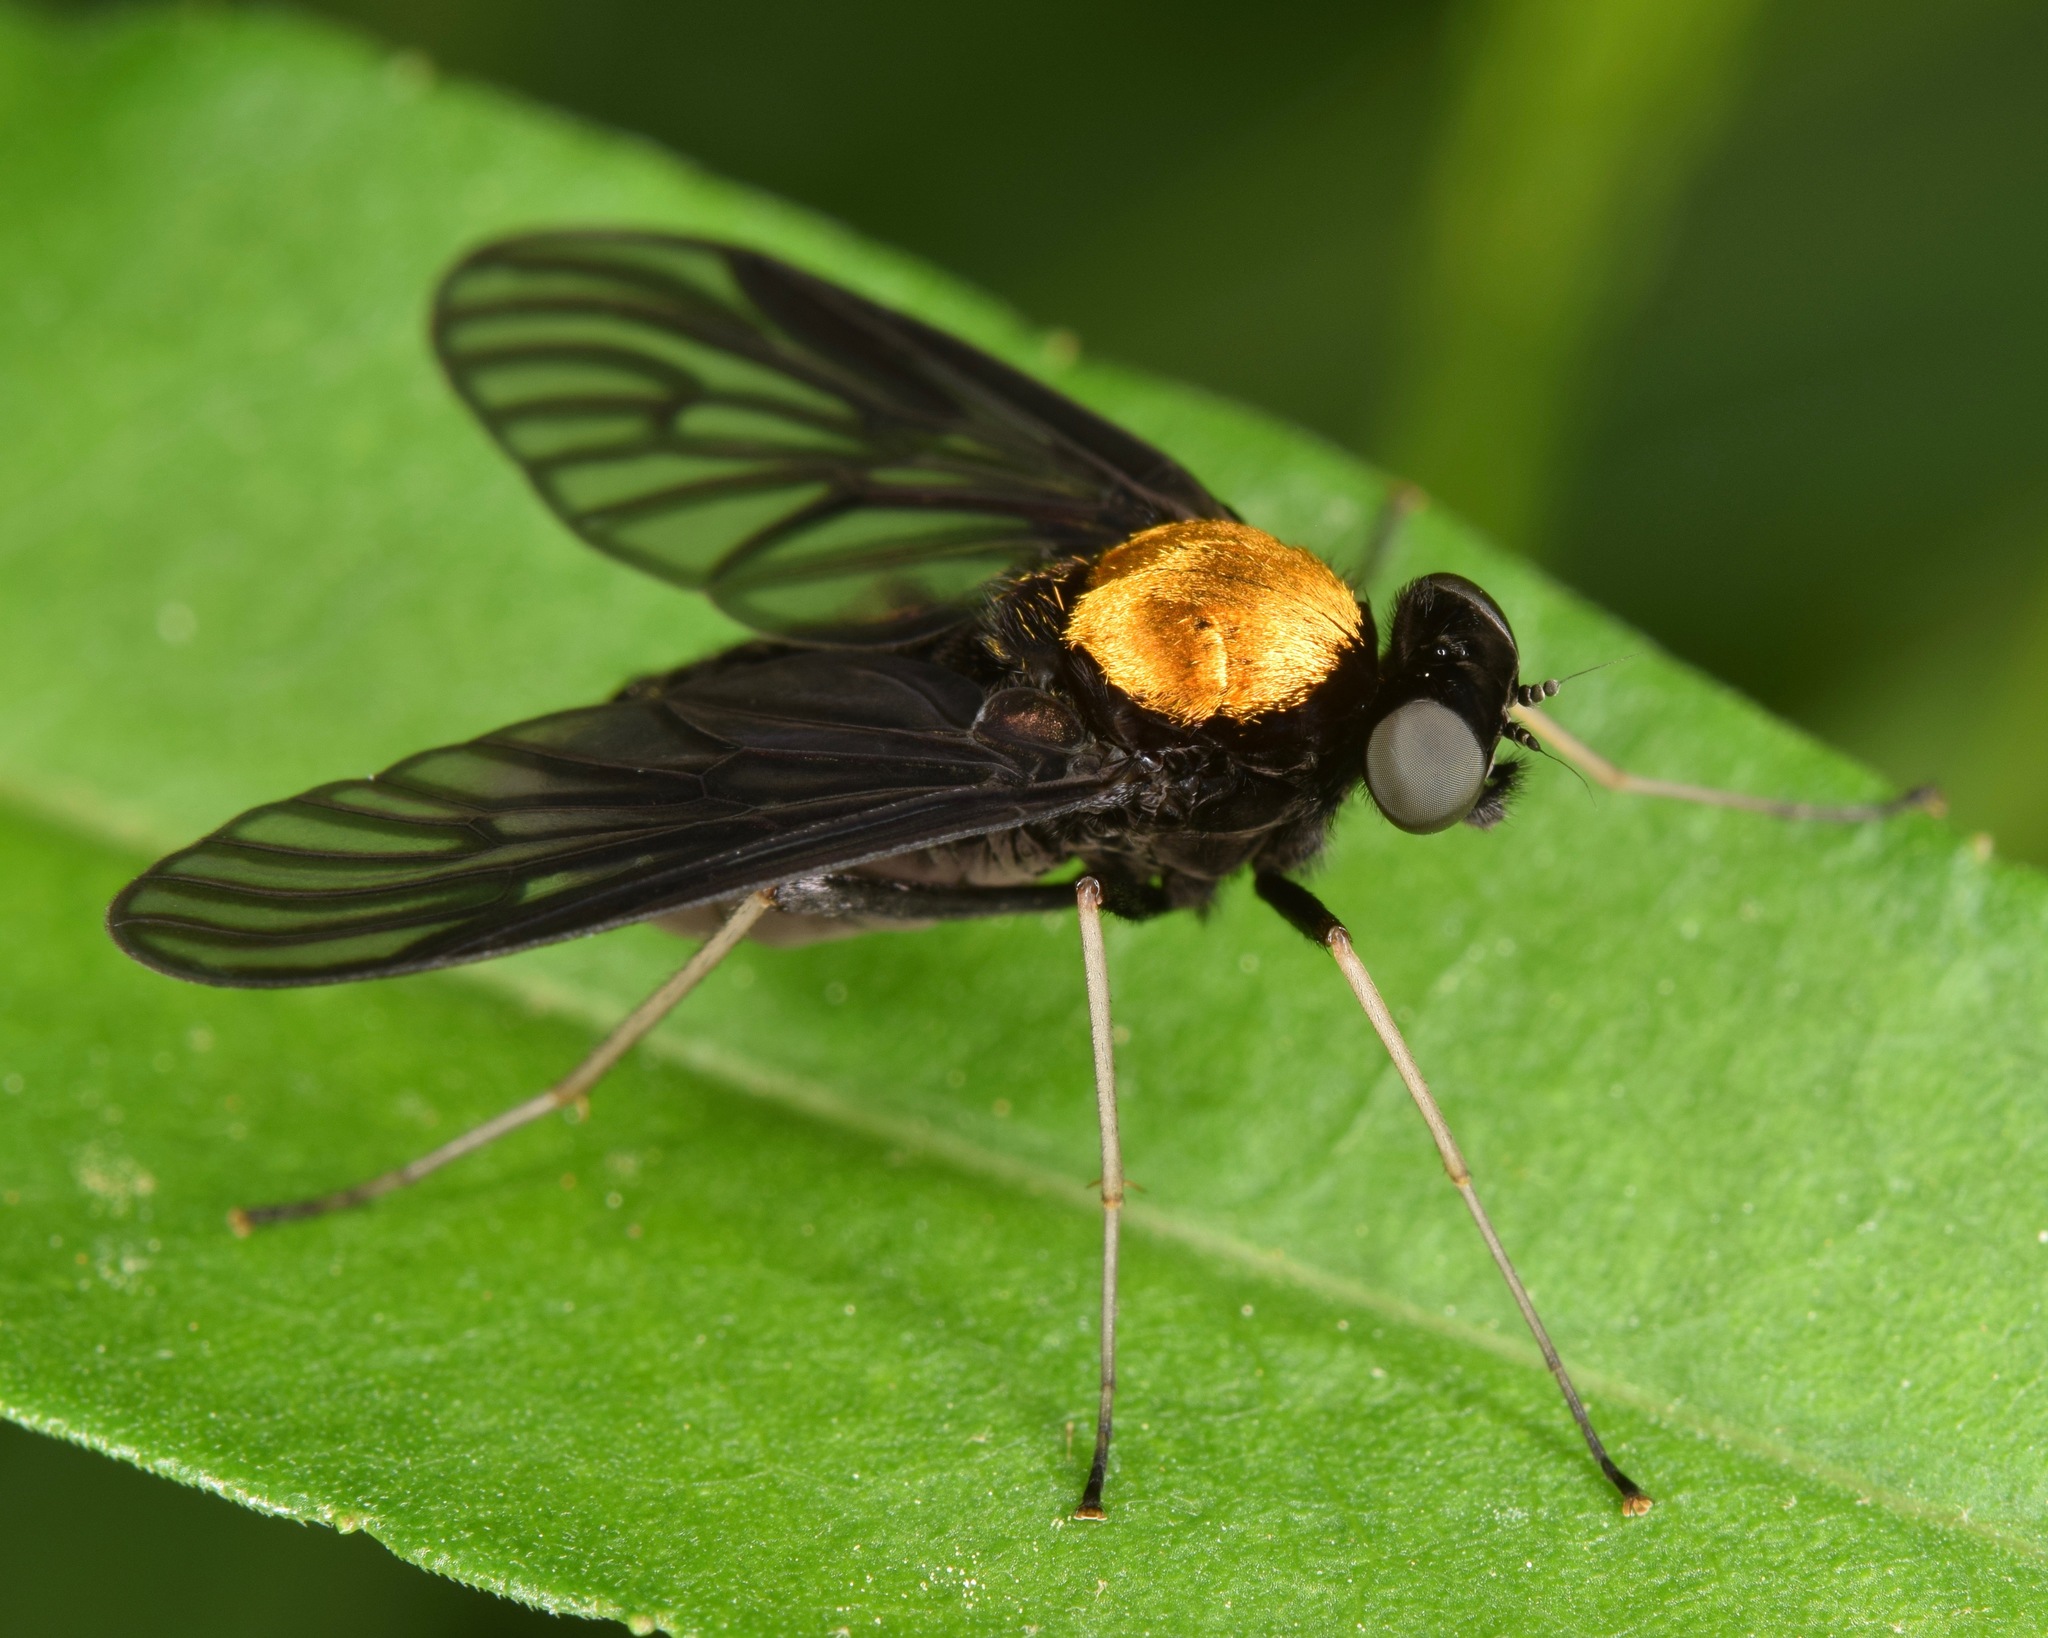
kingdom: Animalia
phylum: Arthropoda
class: Insecta
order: Diptera
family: Rhagionidae
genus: Chrysopilus
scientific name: Chrysopilus davisi
